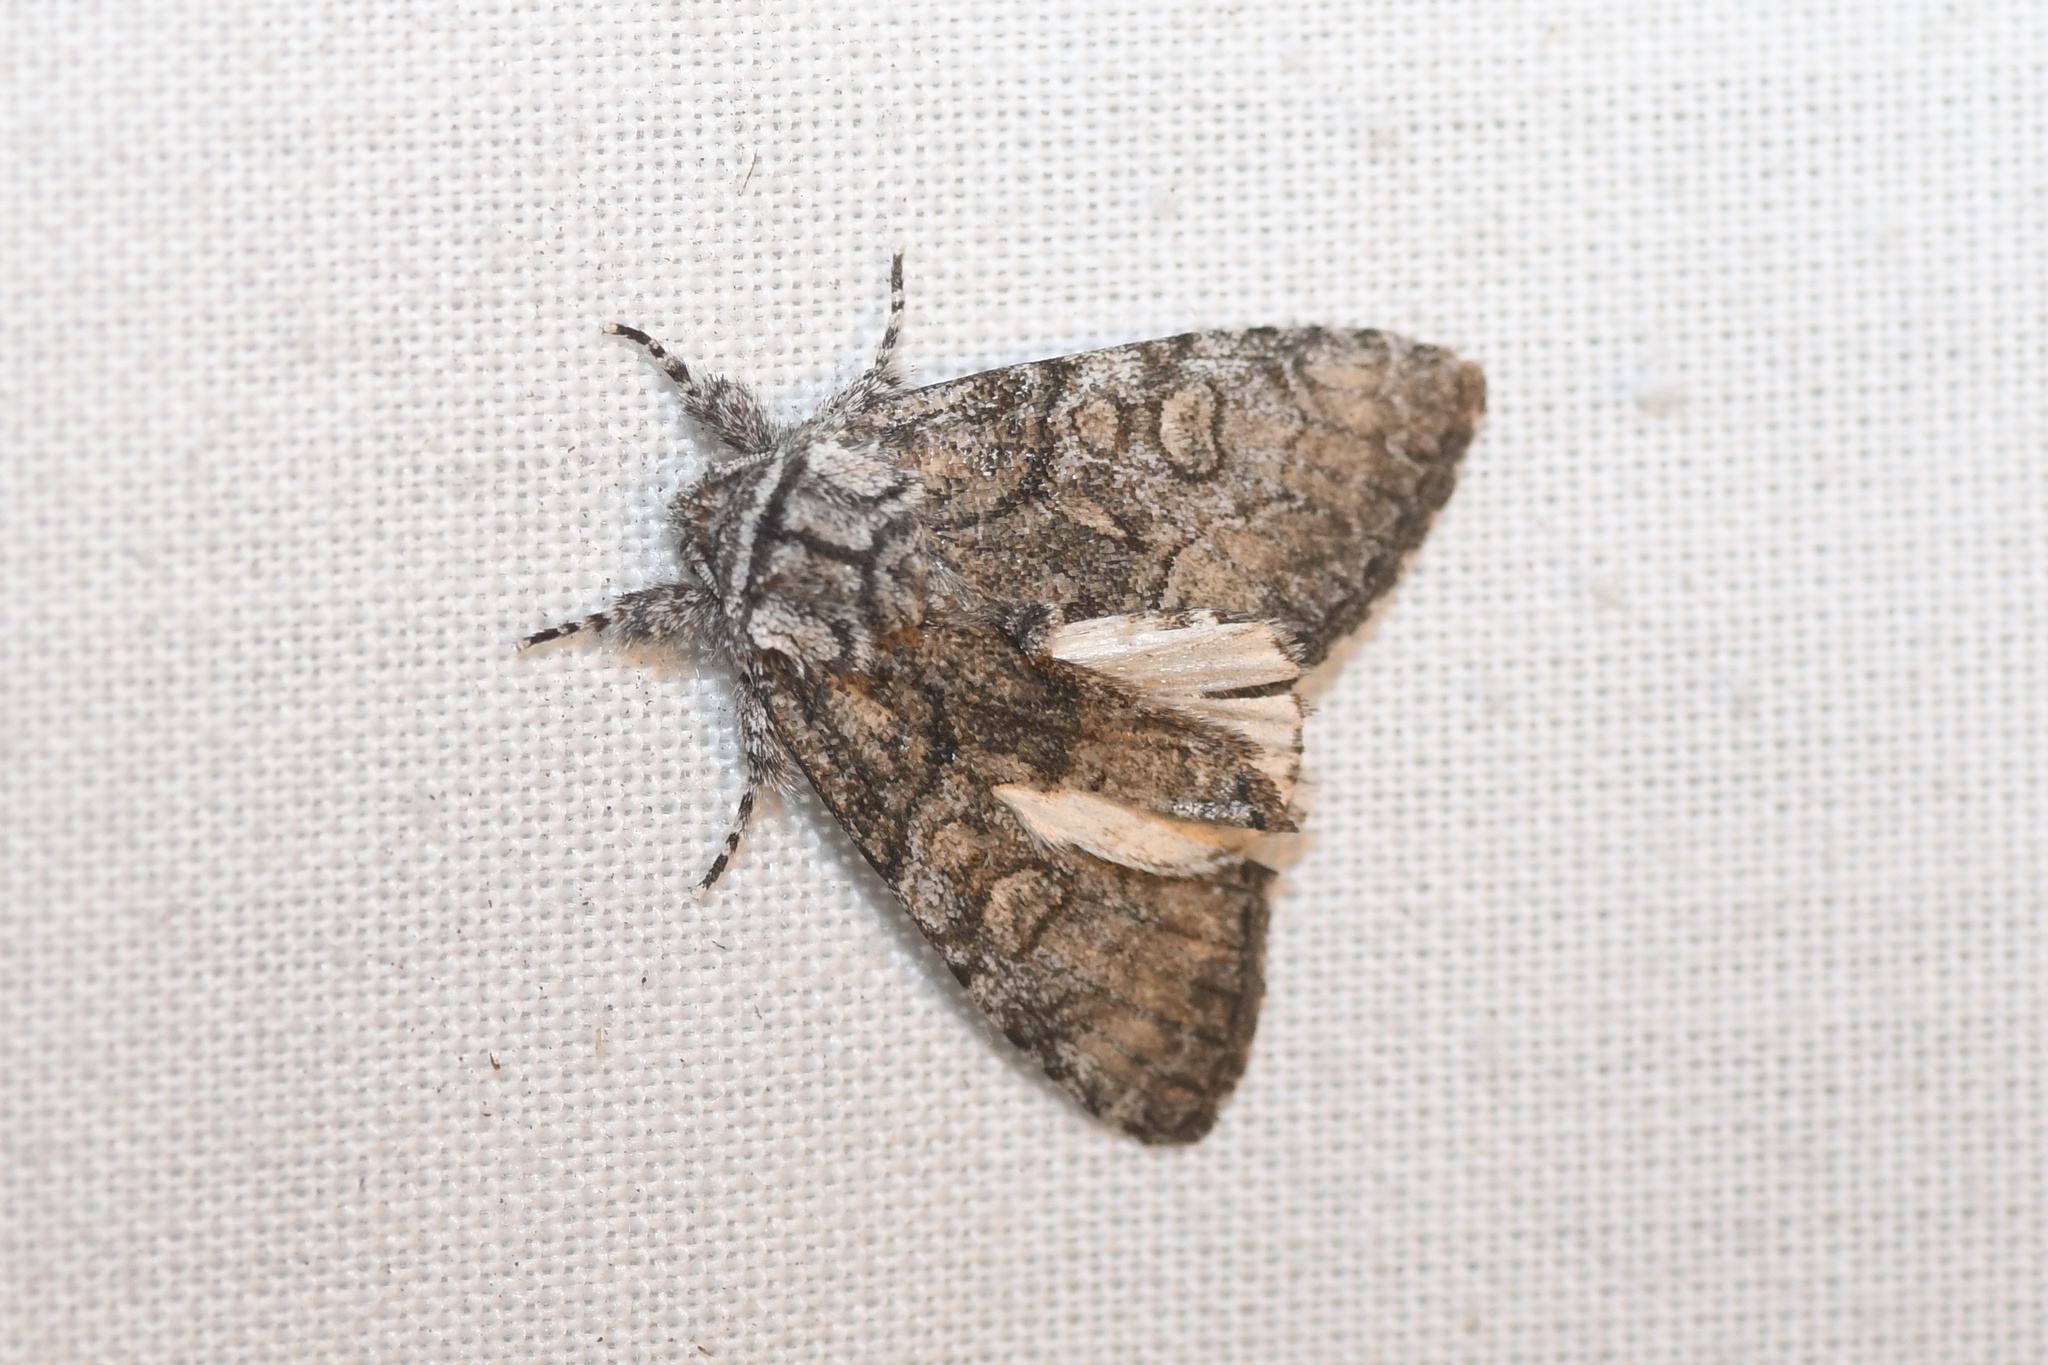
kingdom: Animalia
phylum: Arthropoda
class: Insecta
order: Lepidoptera
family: Noctuidae
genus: Raphia
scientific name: Raphia frater
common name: Brother
